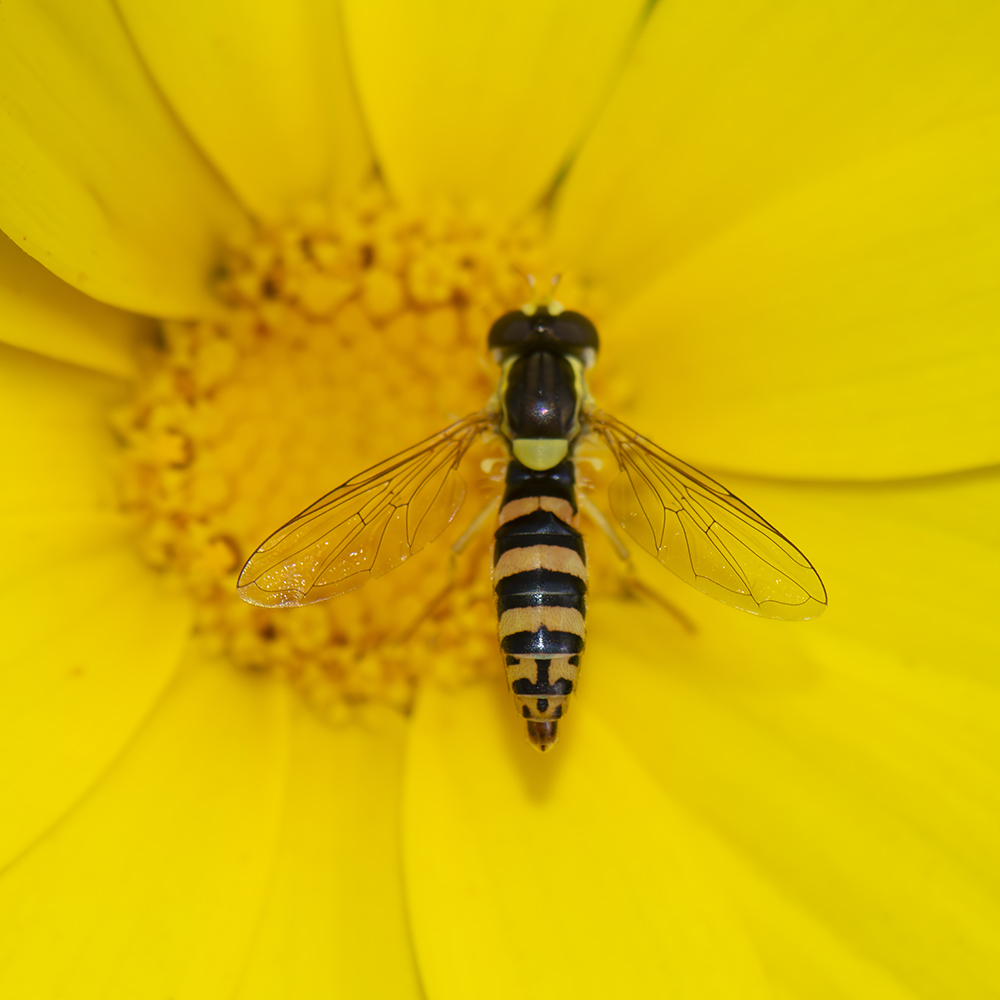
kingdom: Animalia
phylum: Arthropoda
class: Insecta
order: Diptera
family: Syrphidae
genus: Sphaerophoria
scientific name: Sphaerophoria
